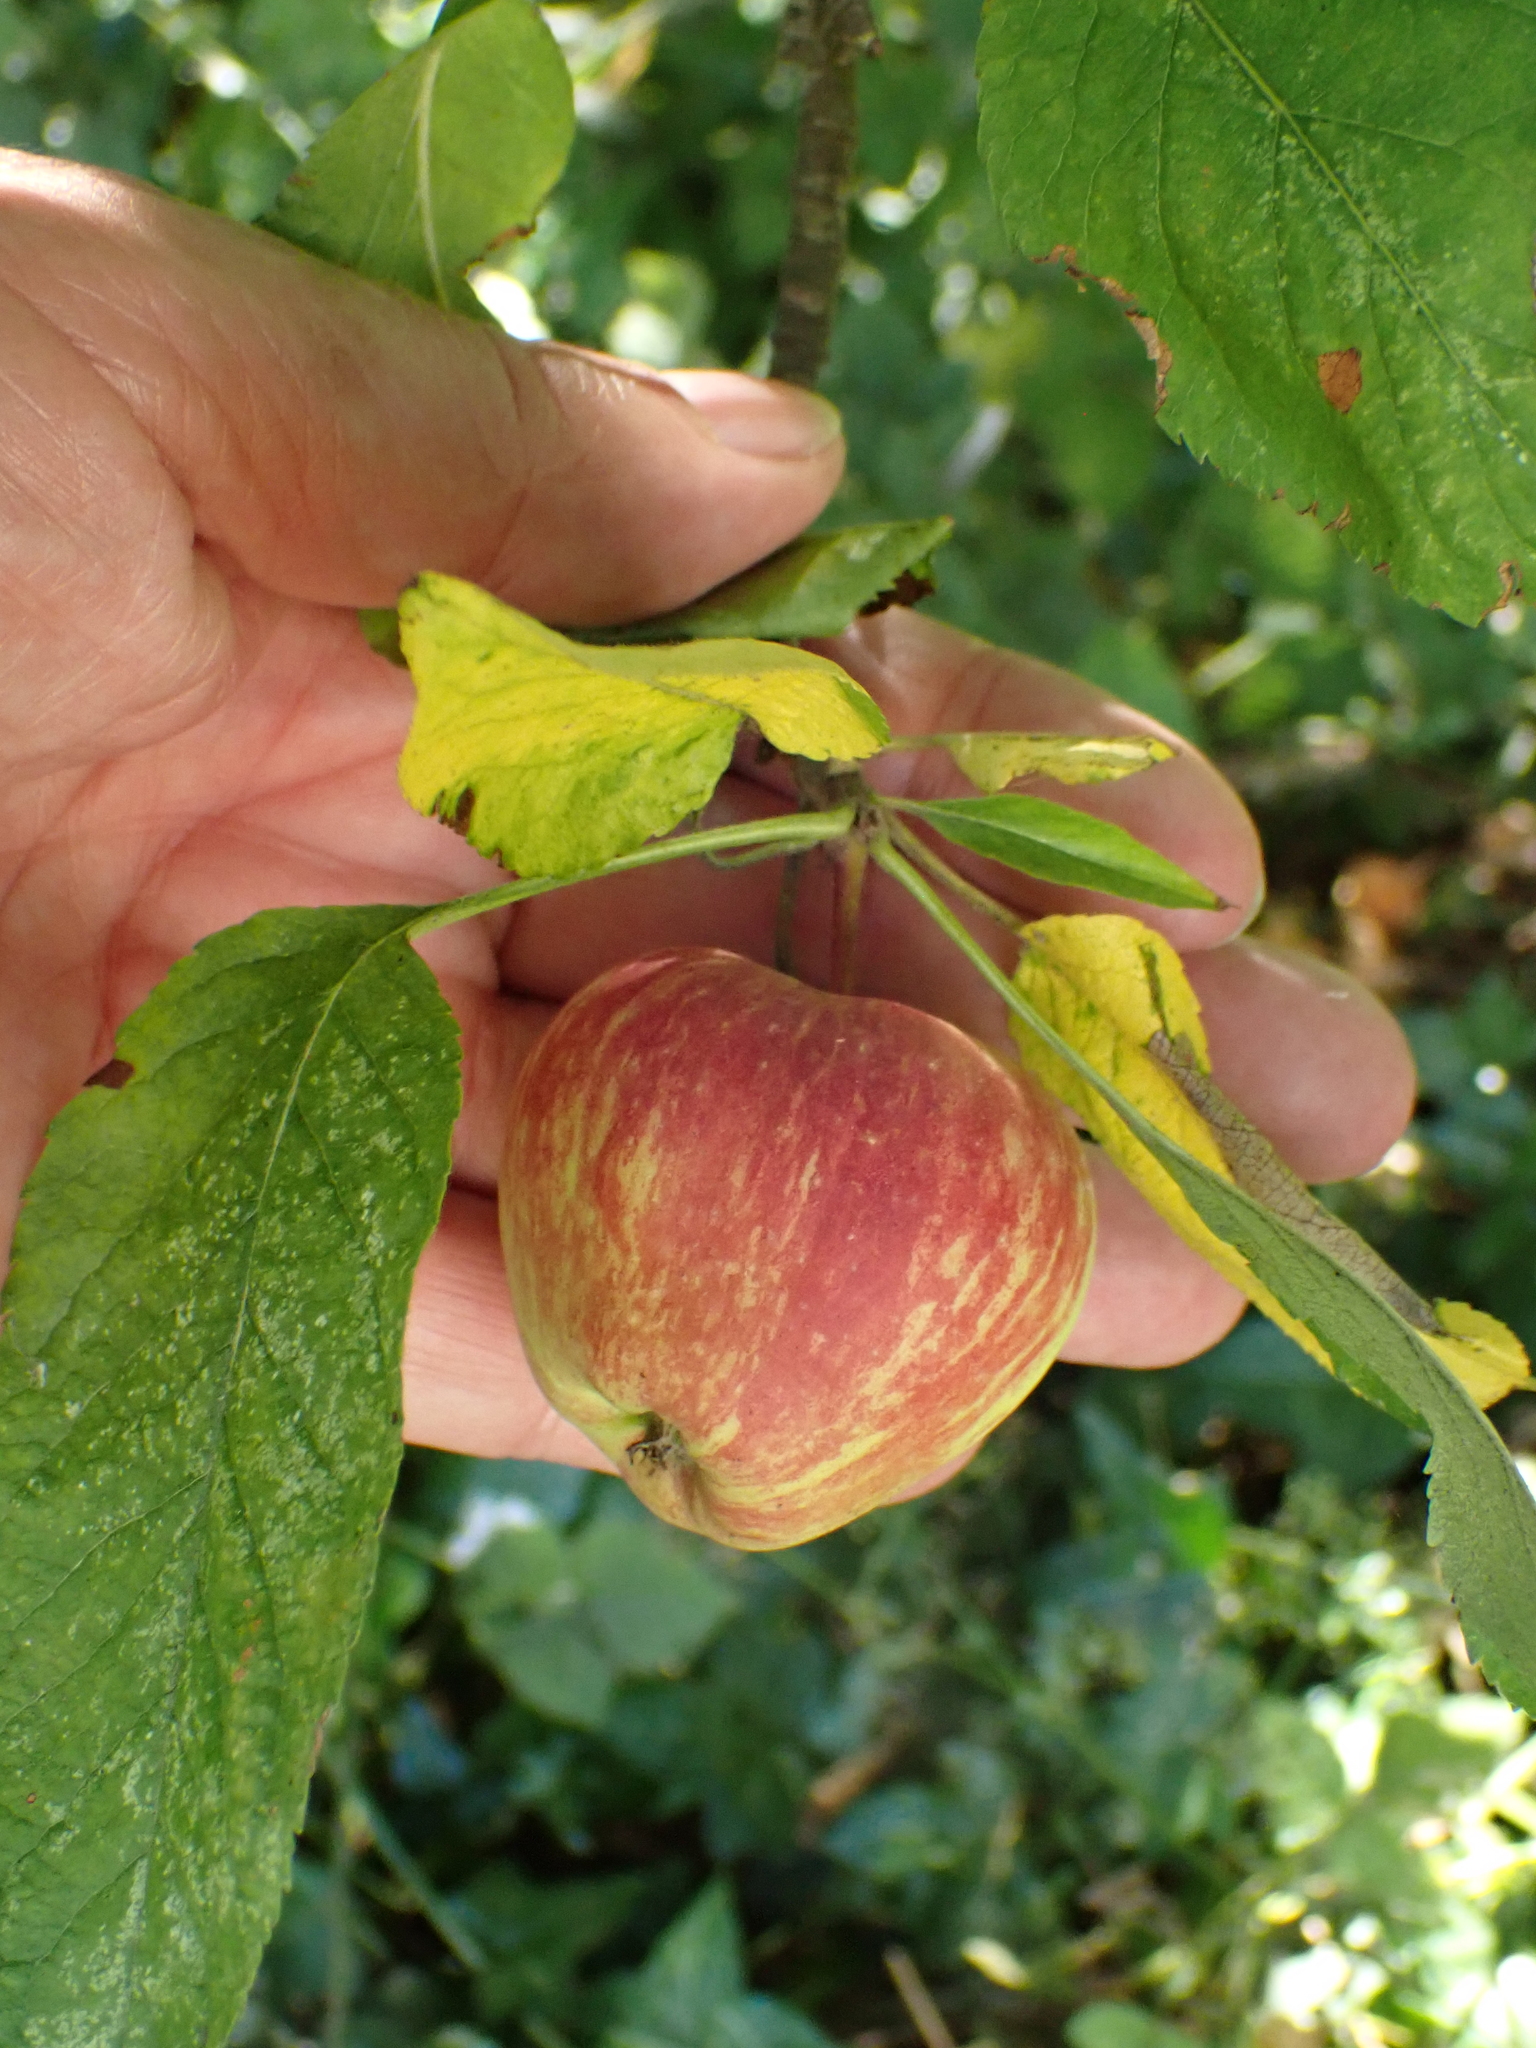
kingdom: Plantae
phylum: Tracheophyta
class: Magnoliopsida
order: Rosales
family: Rosaceae
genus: Malus
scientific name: Malus domestica
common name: Apple
